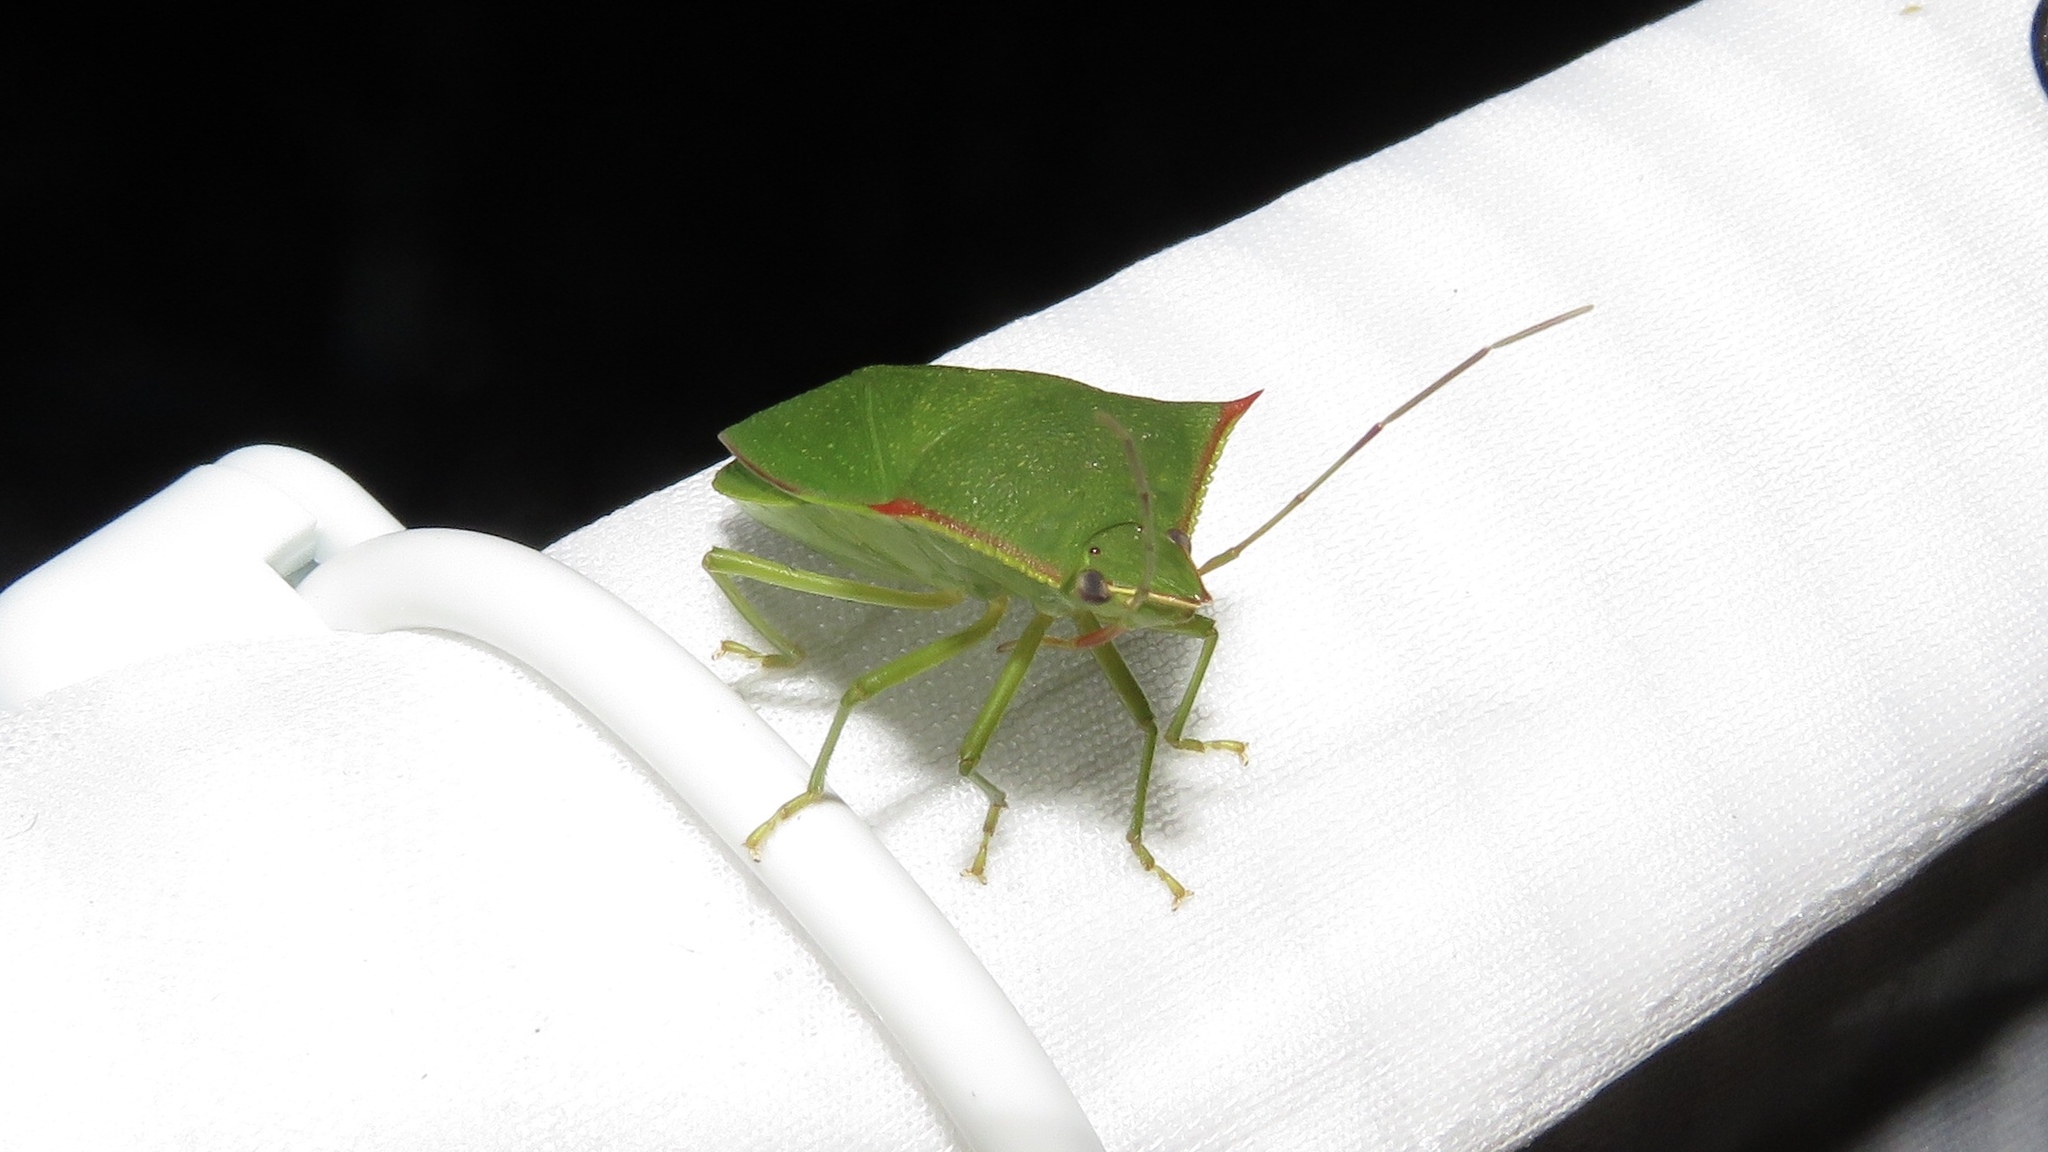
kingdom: Animalia
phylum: Arthropoda
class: Insecta
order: Hemiptera
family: Pentatomidae
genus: Loxa
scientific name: Loxa flavicollis
